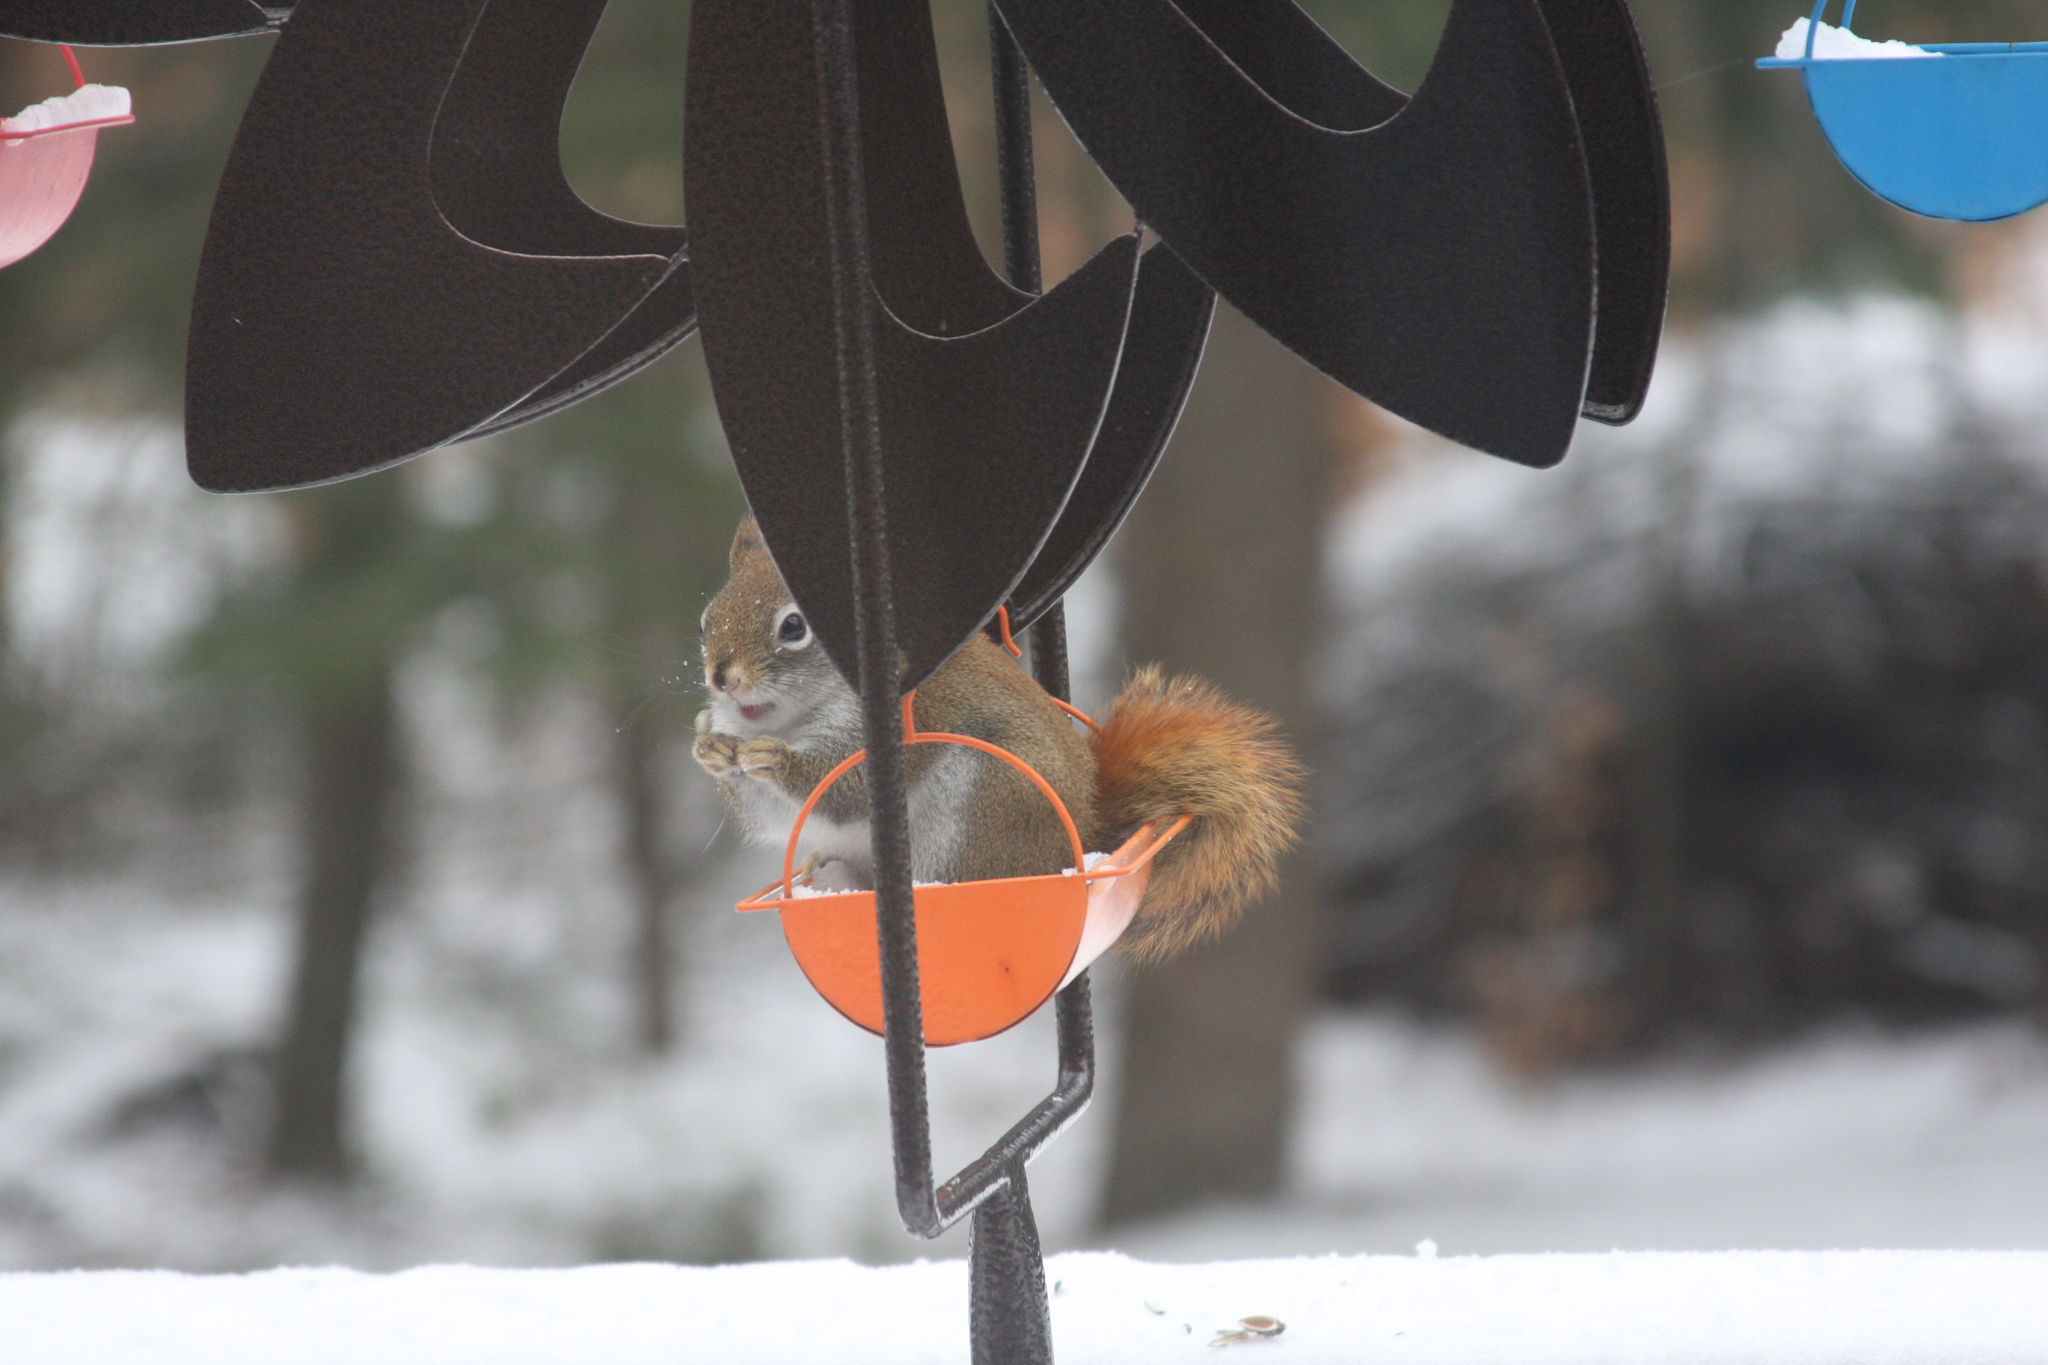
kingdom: Animalia
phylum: Chordata
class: Mammalia
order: Rodentia
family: Sciuridae
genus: Tamiasciurus
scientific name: Tamiasciurus hudsonicus
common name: Red squirrel
